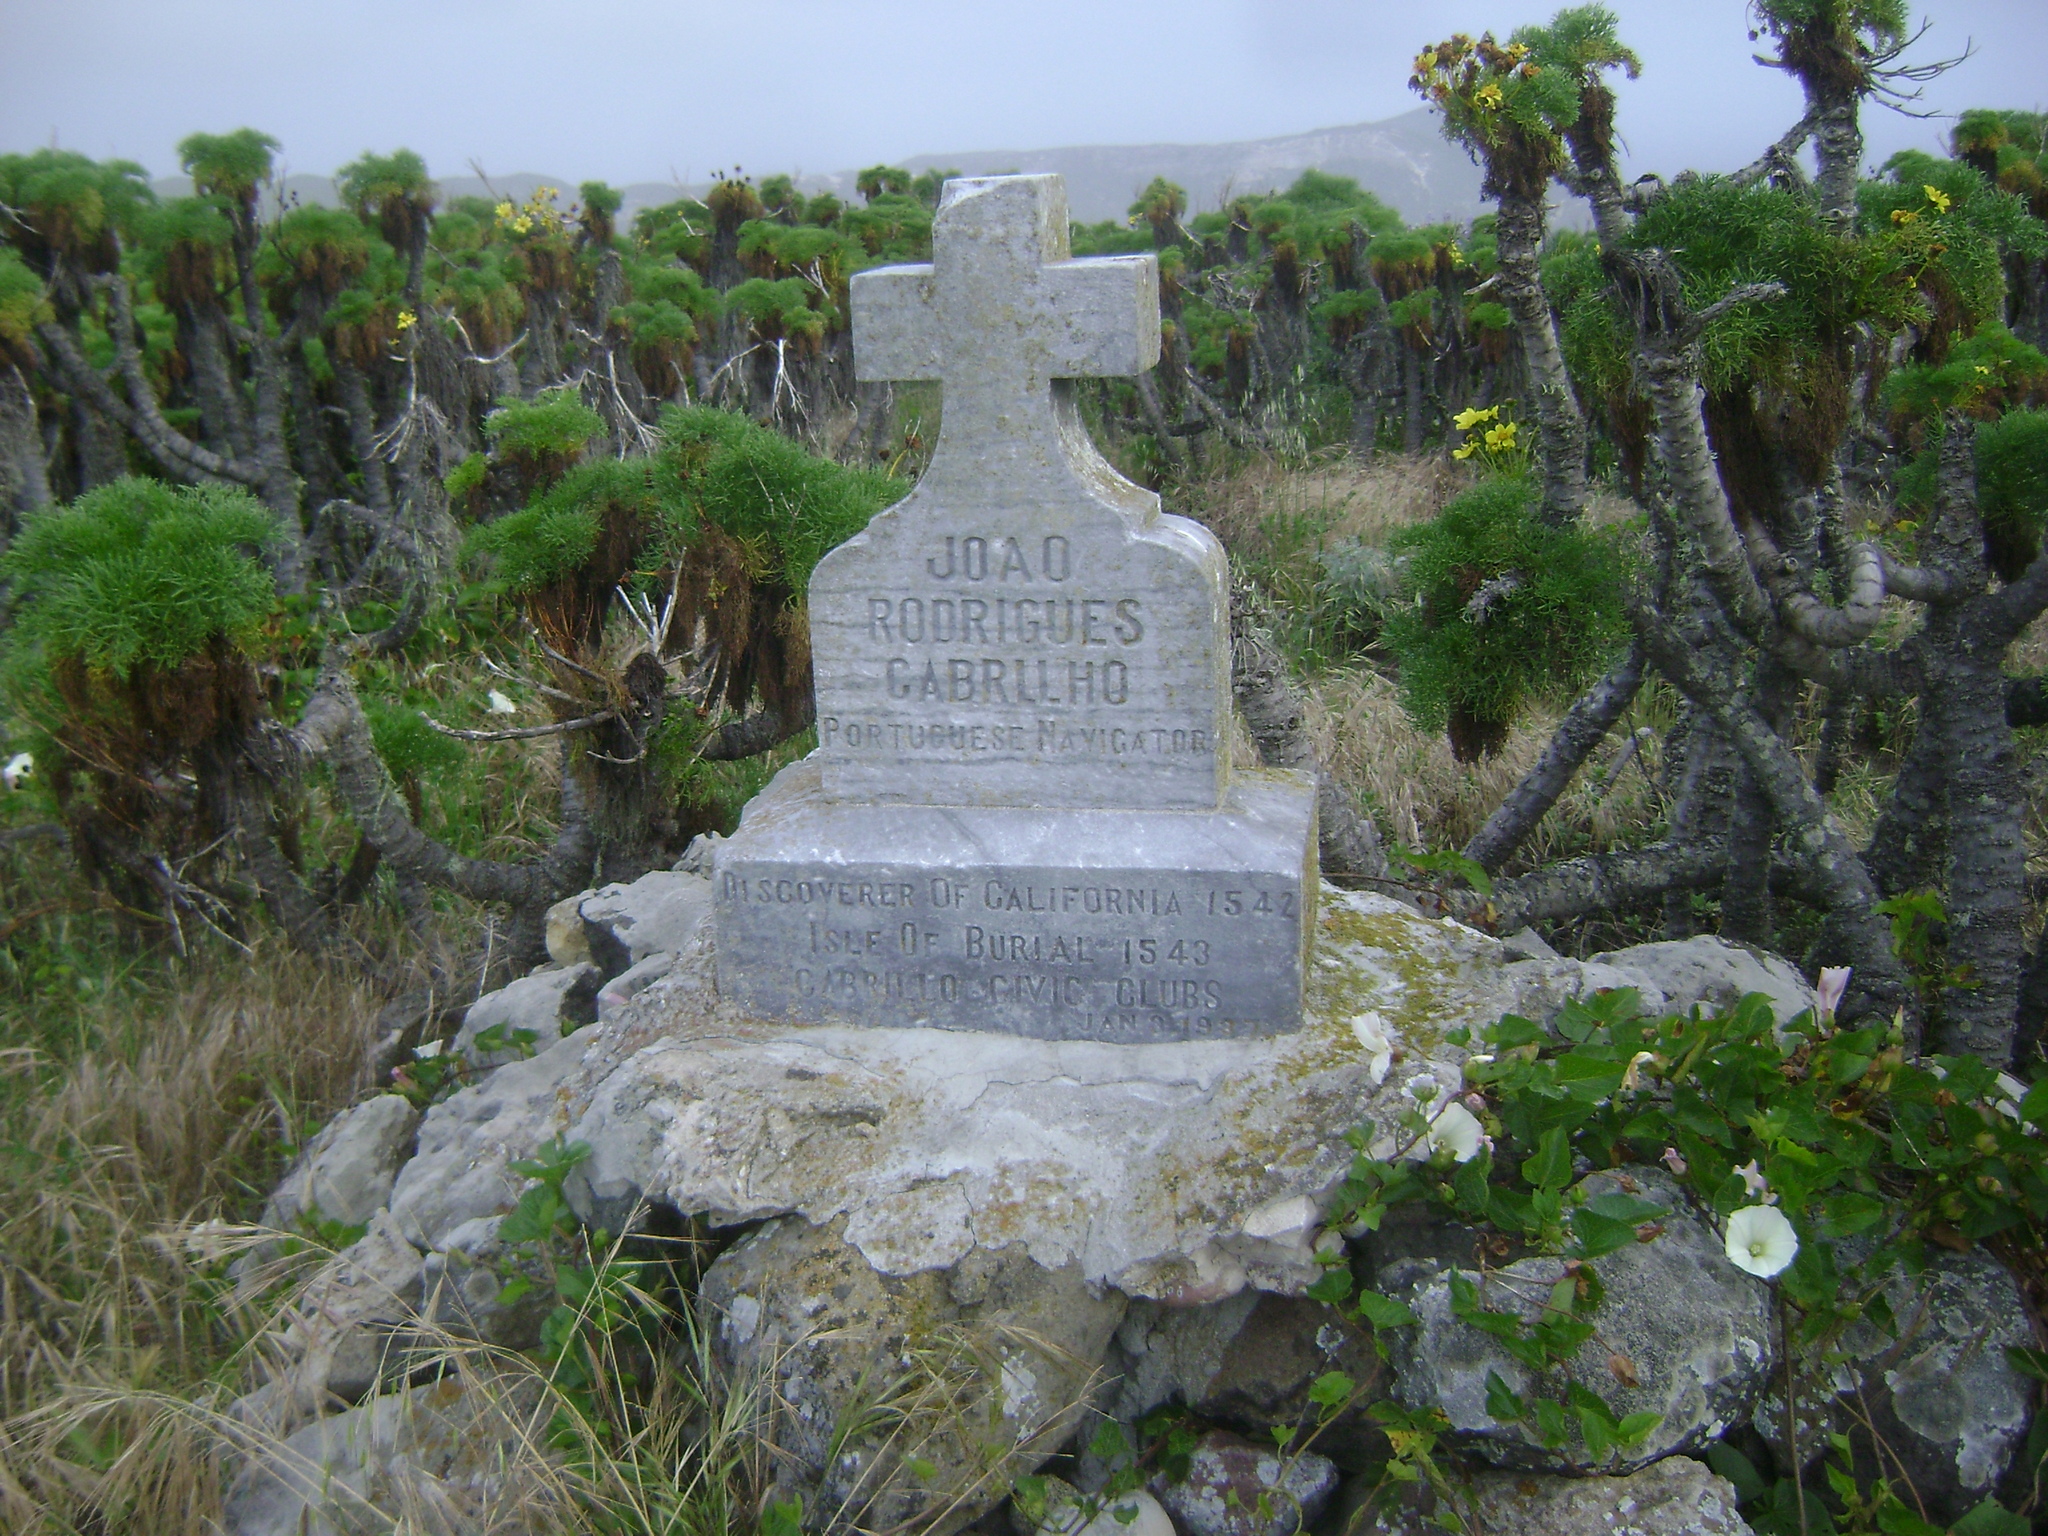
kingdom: Plantae
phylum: Tracheophyta
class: Magnoliopsida
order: Asterales
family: Asteraceae
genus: Coreopsis
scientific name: Coreopsis gigantea
